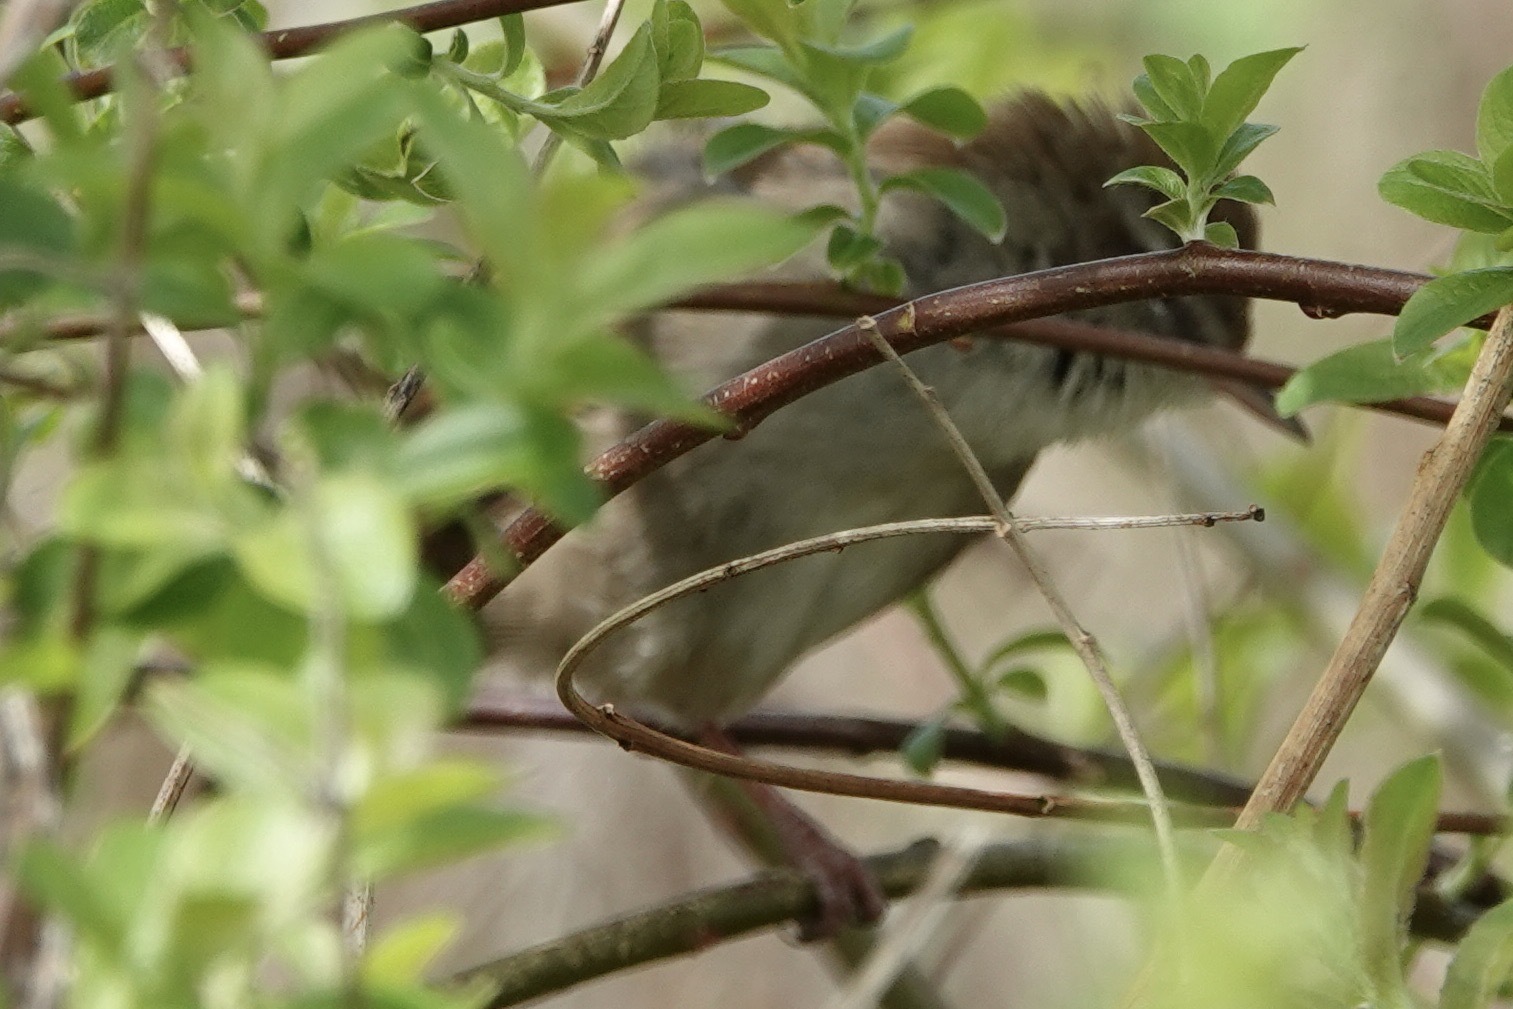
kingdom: Animalia
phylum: Chordata
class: Aves
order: Passeriformes
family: Cettiidae
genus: Cettia
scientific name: Cettia cetti
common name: Cetti's warbler
